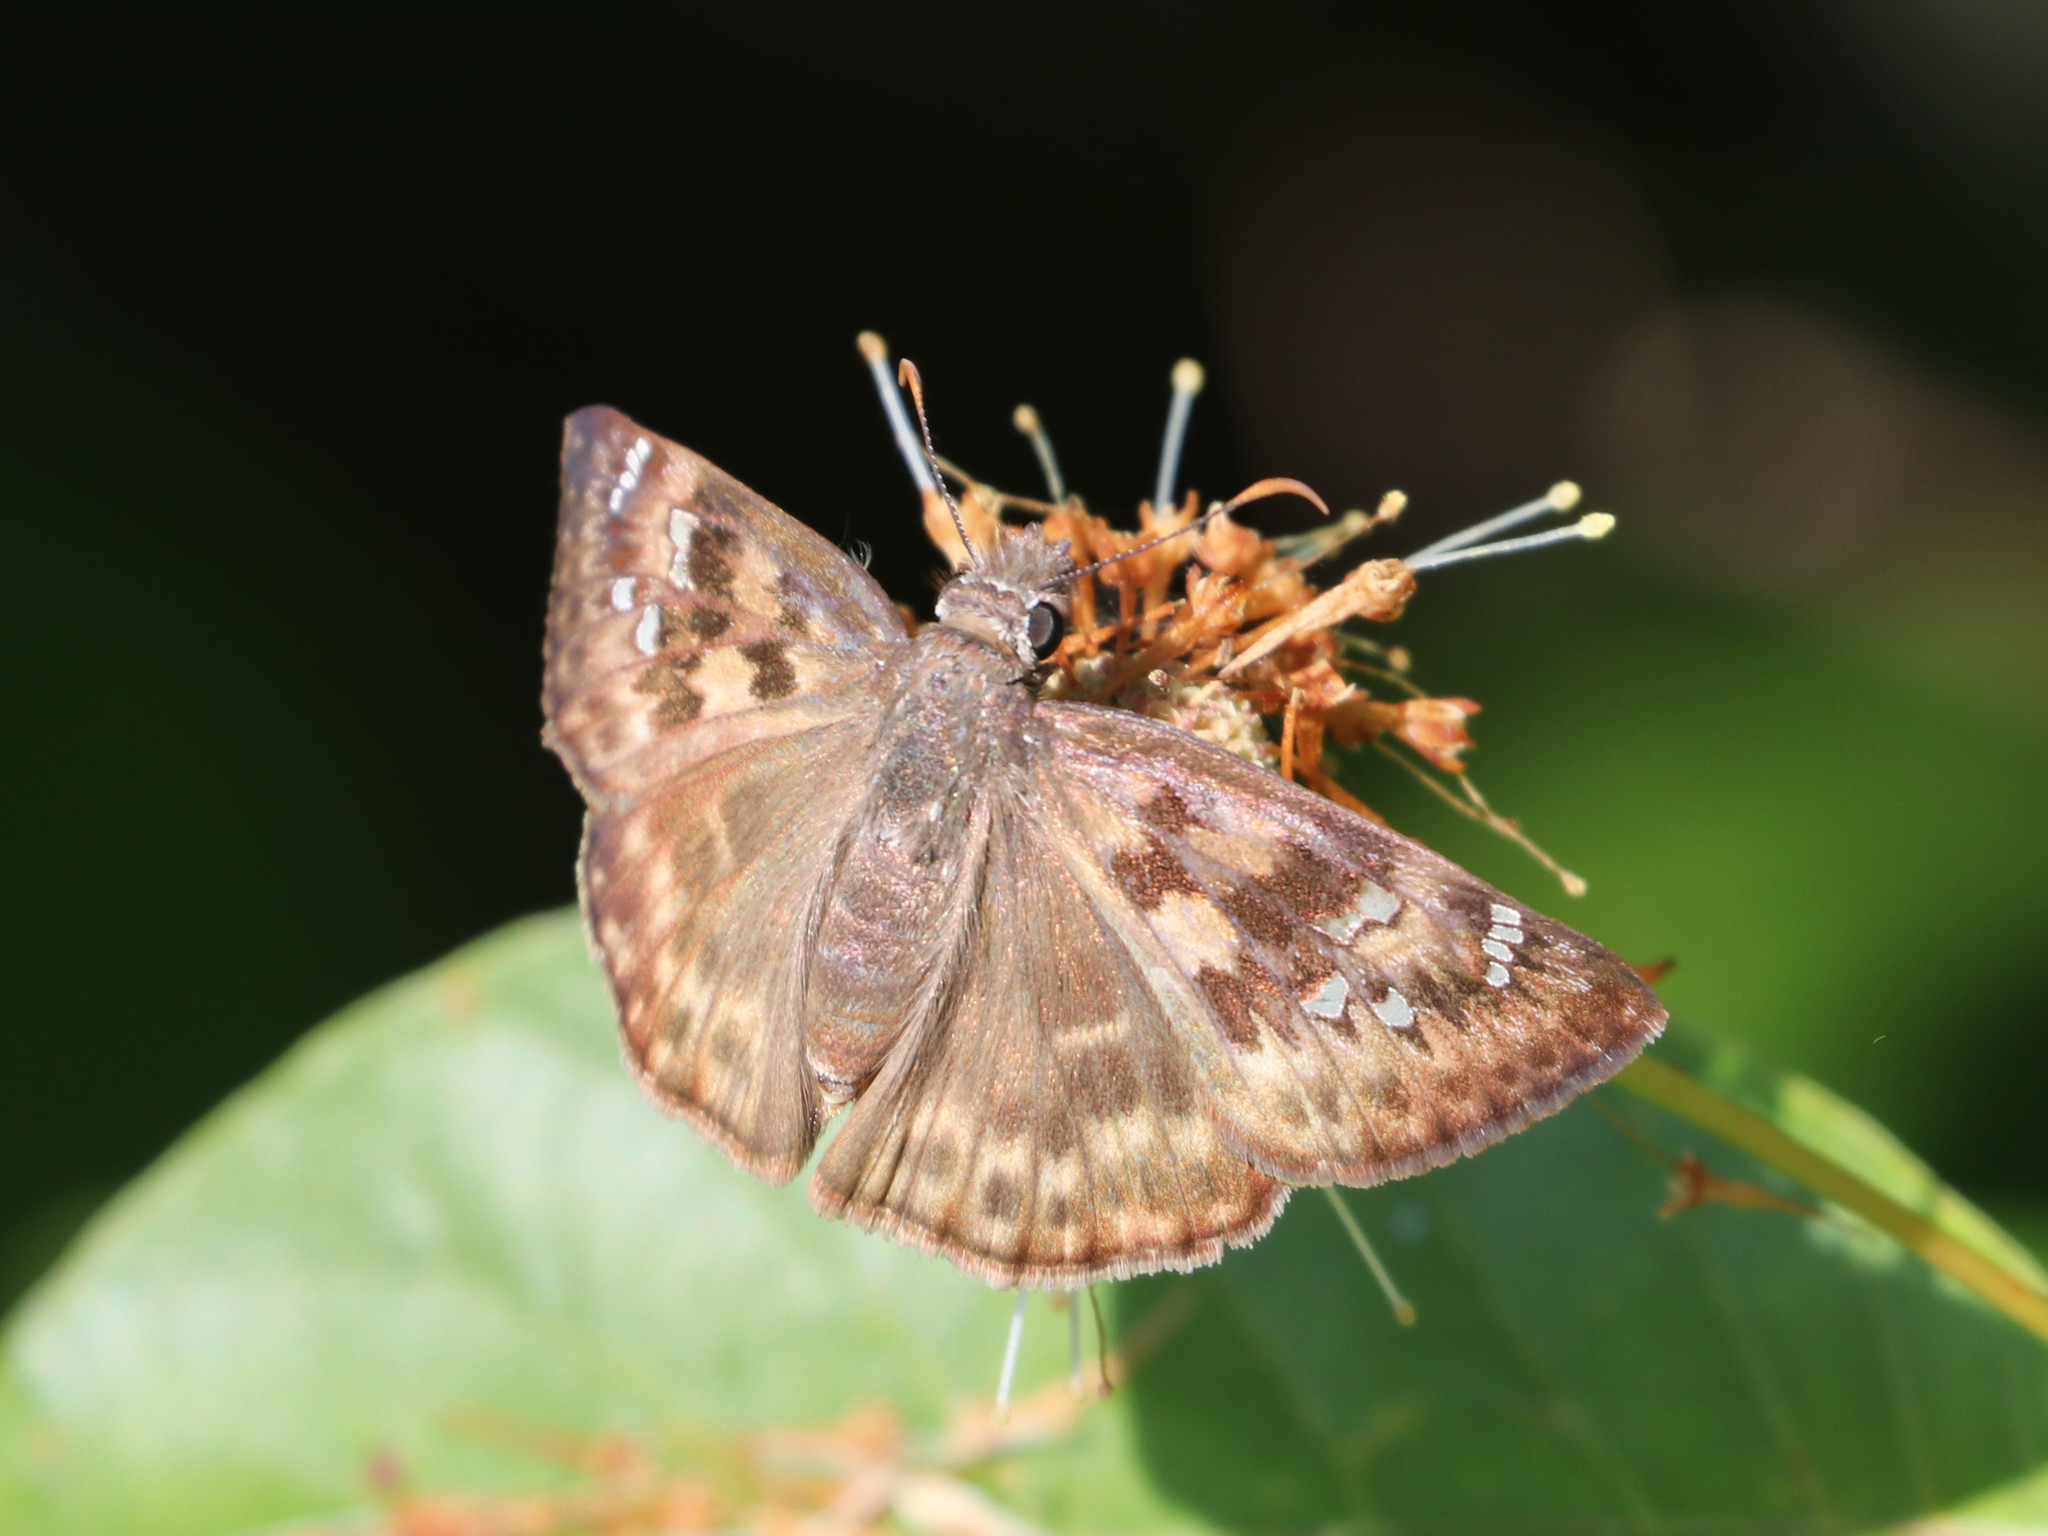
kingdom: Animalia
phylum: Arthropoda
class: Insecta
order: Lepidoptera
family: Hesperiidae
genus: Erynnis
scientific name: Erynnis horatius
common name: Horace's duskywing
